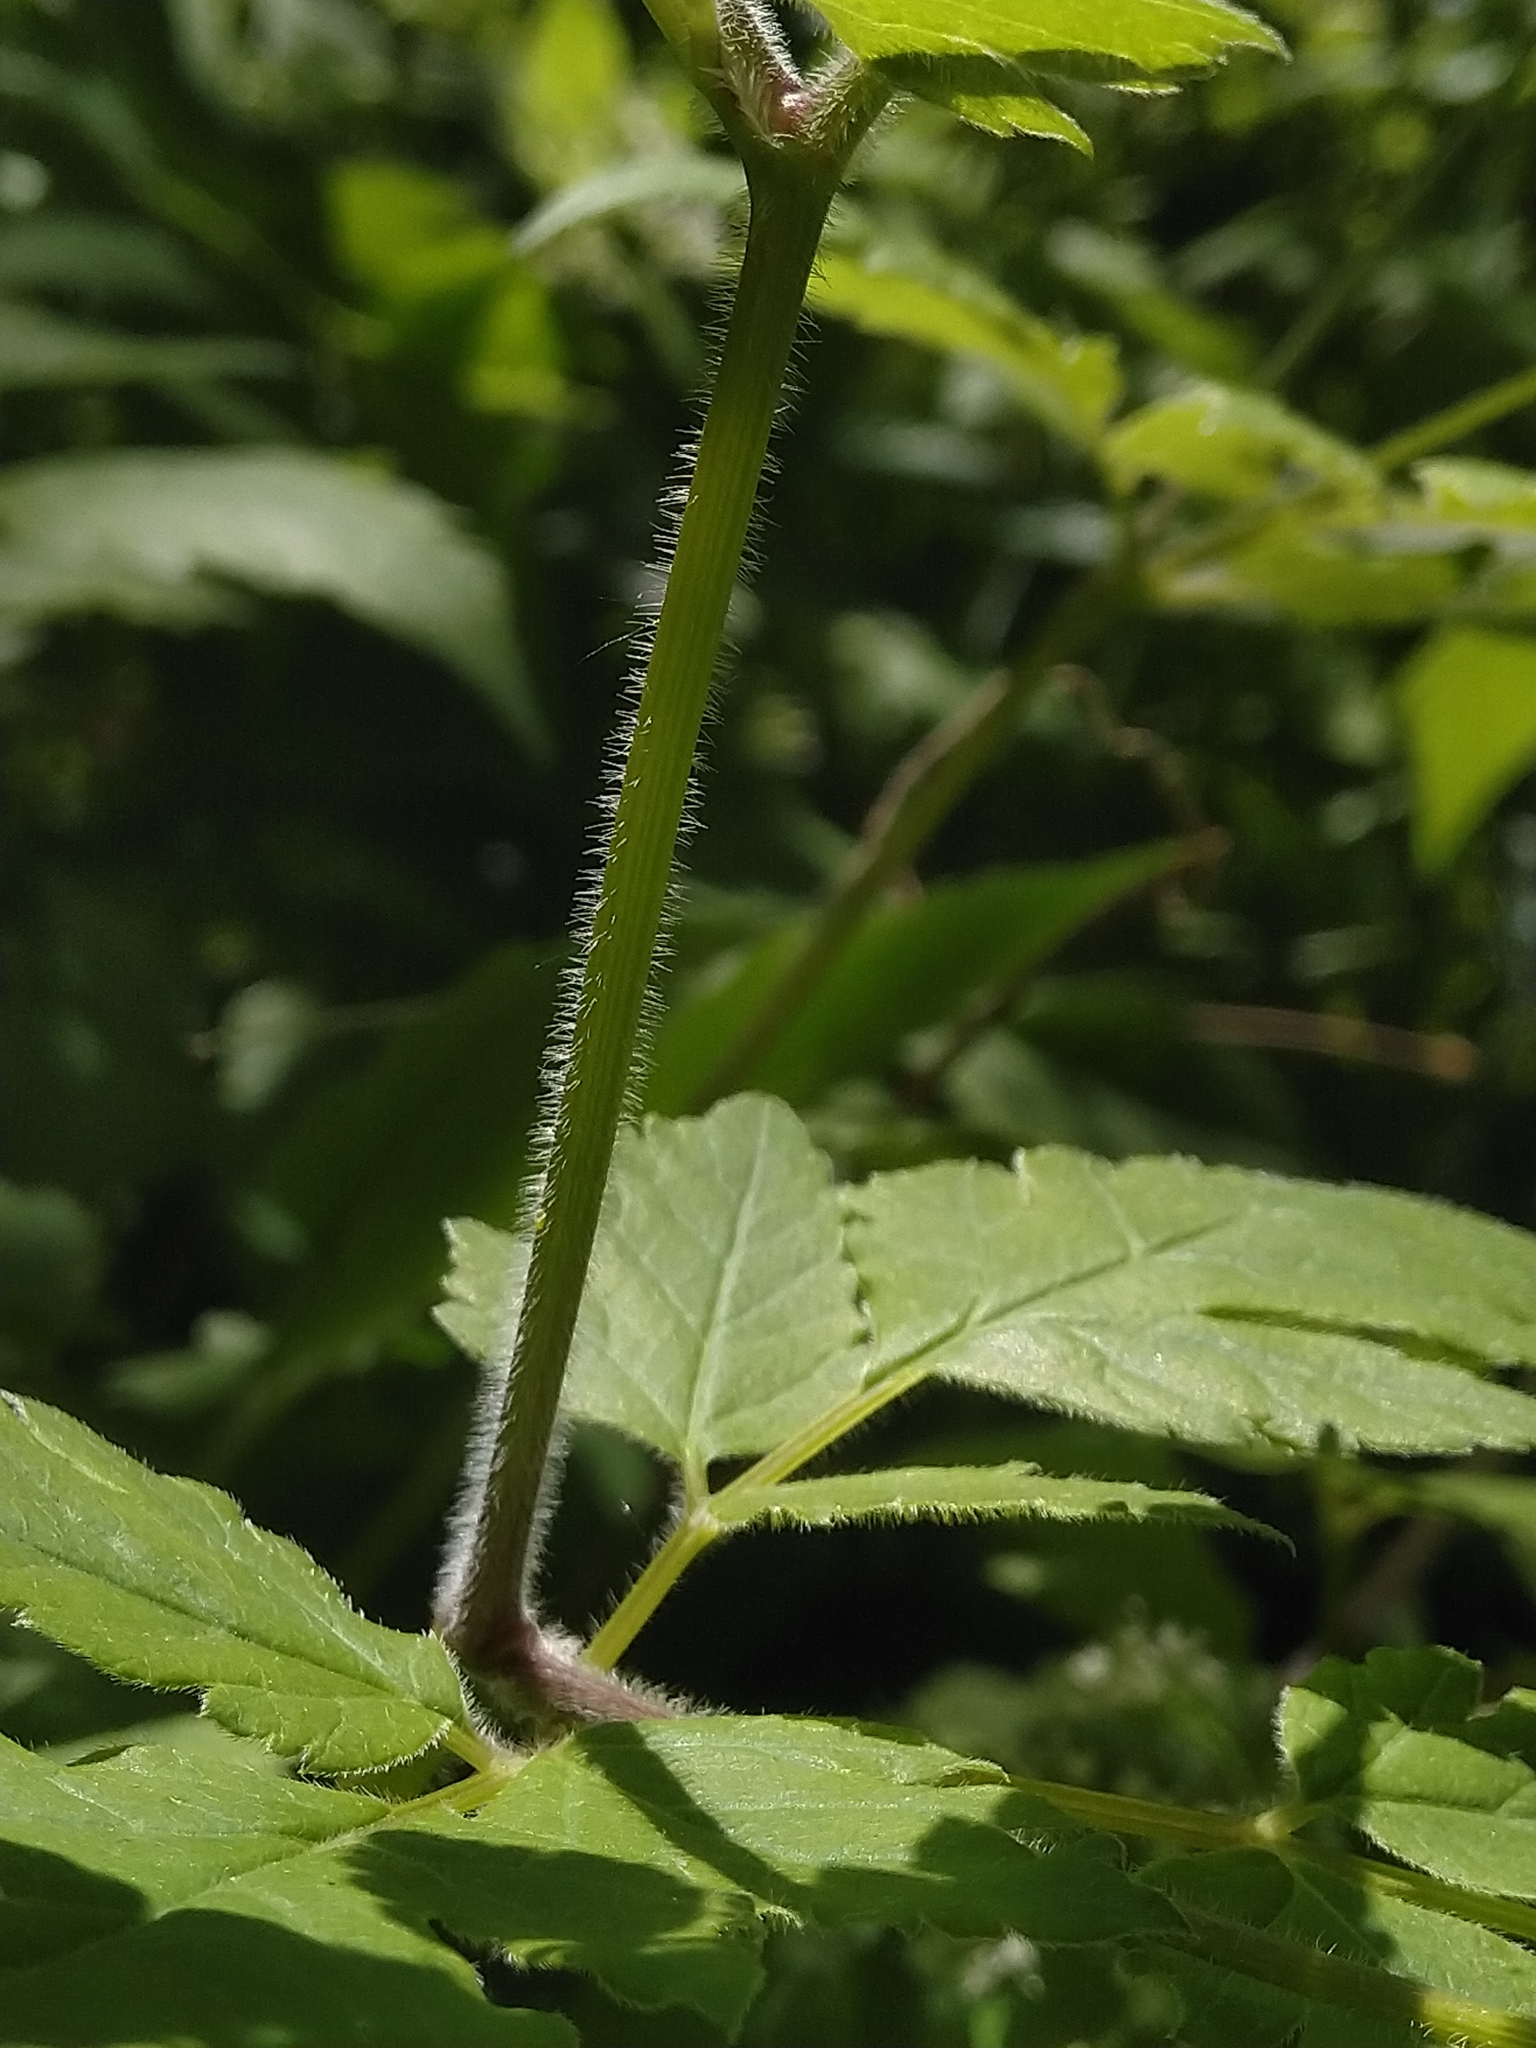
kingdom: Plantae
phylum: Tracheophyta
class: Magnoliopsida
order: Apiales
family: Apiaceae
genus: Osmorhiza
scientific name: Osmorhiza longistylis
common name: Smooth sweet cicely
